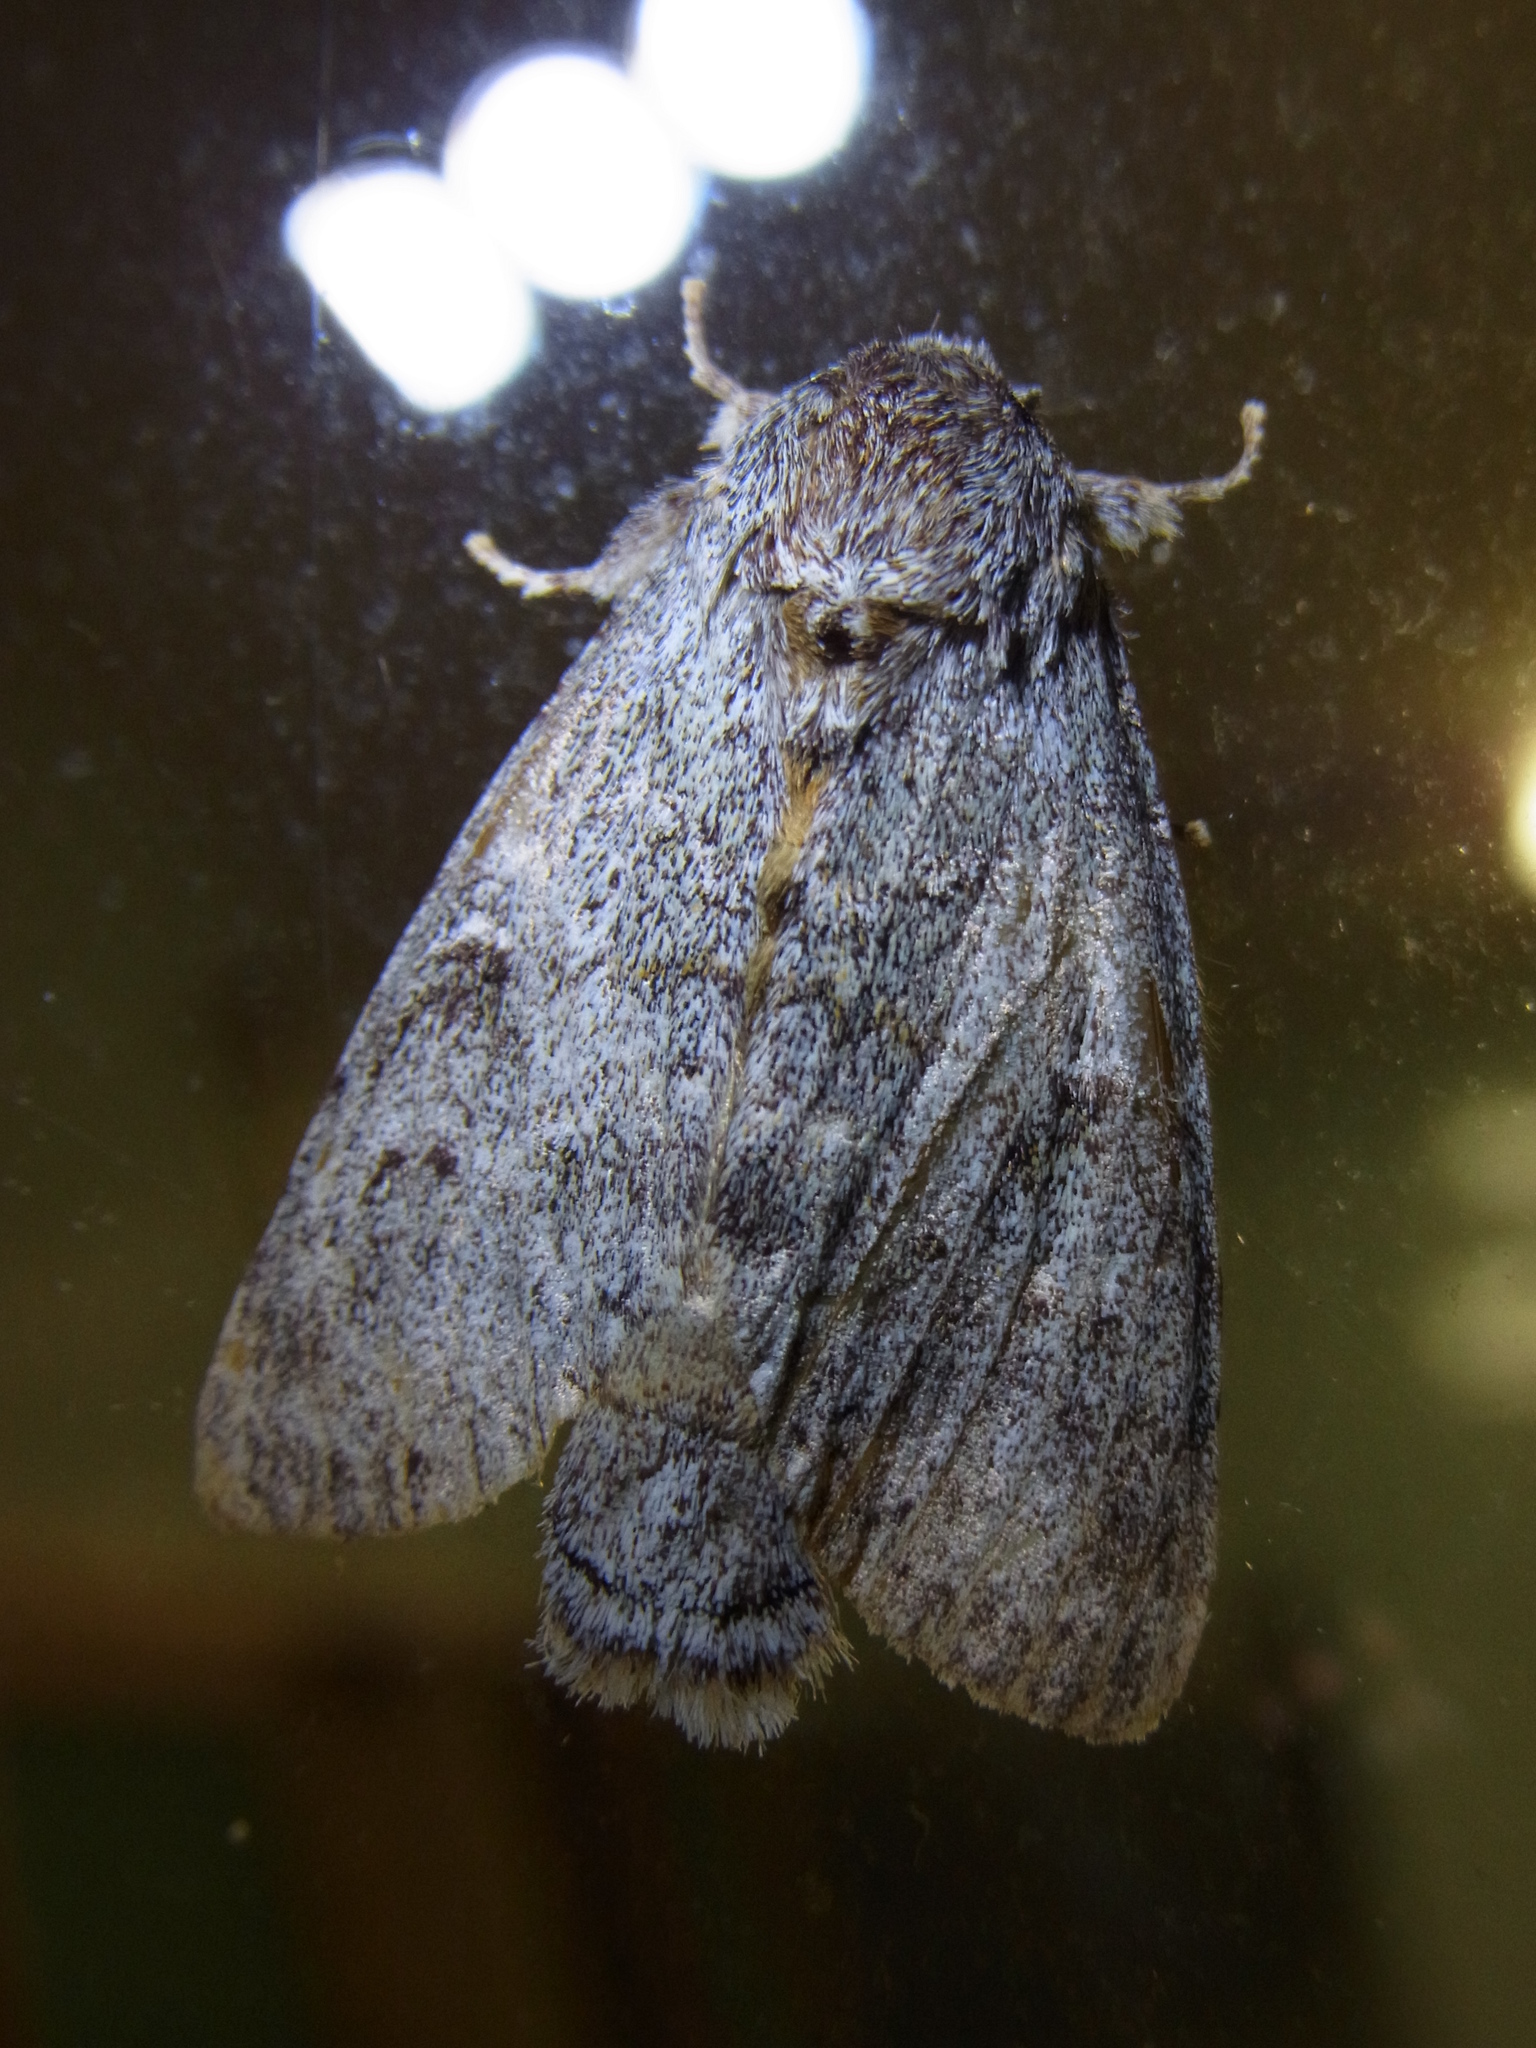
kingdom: Animalia
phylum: Arthropoda
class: Insecta
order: Lepidoptera
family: Notodontidae
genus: Mesophalera
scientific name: Mesophalera sigmata
